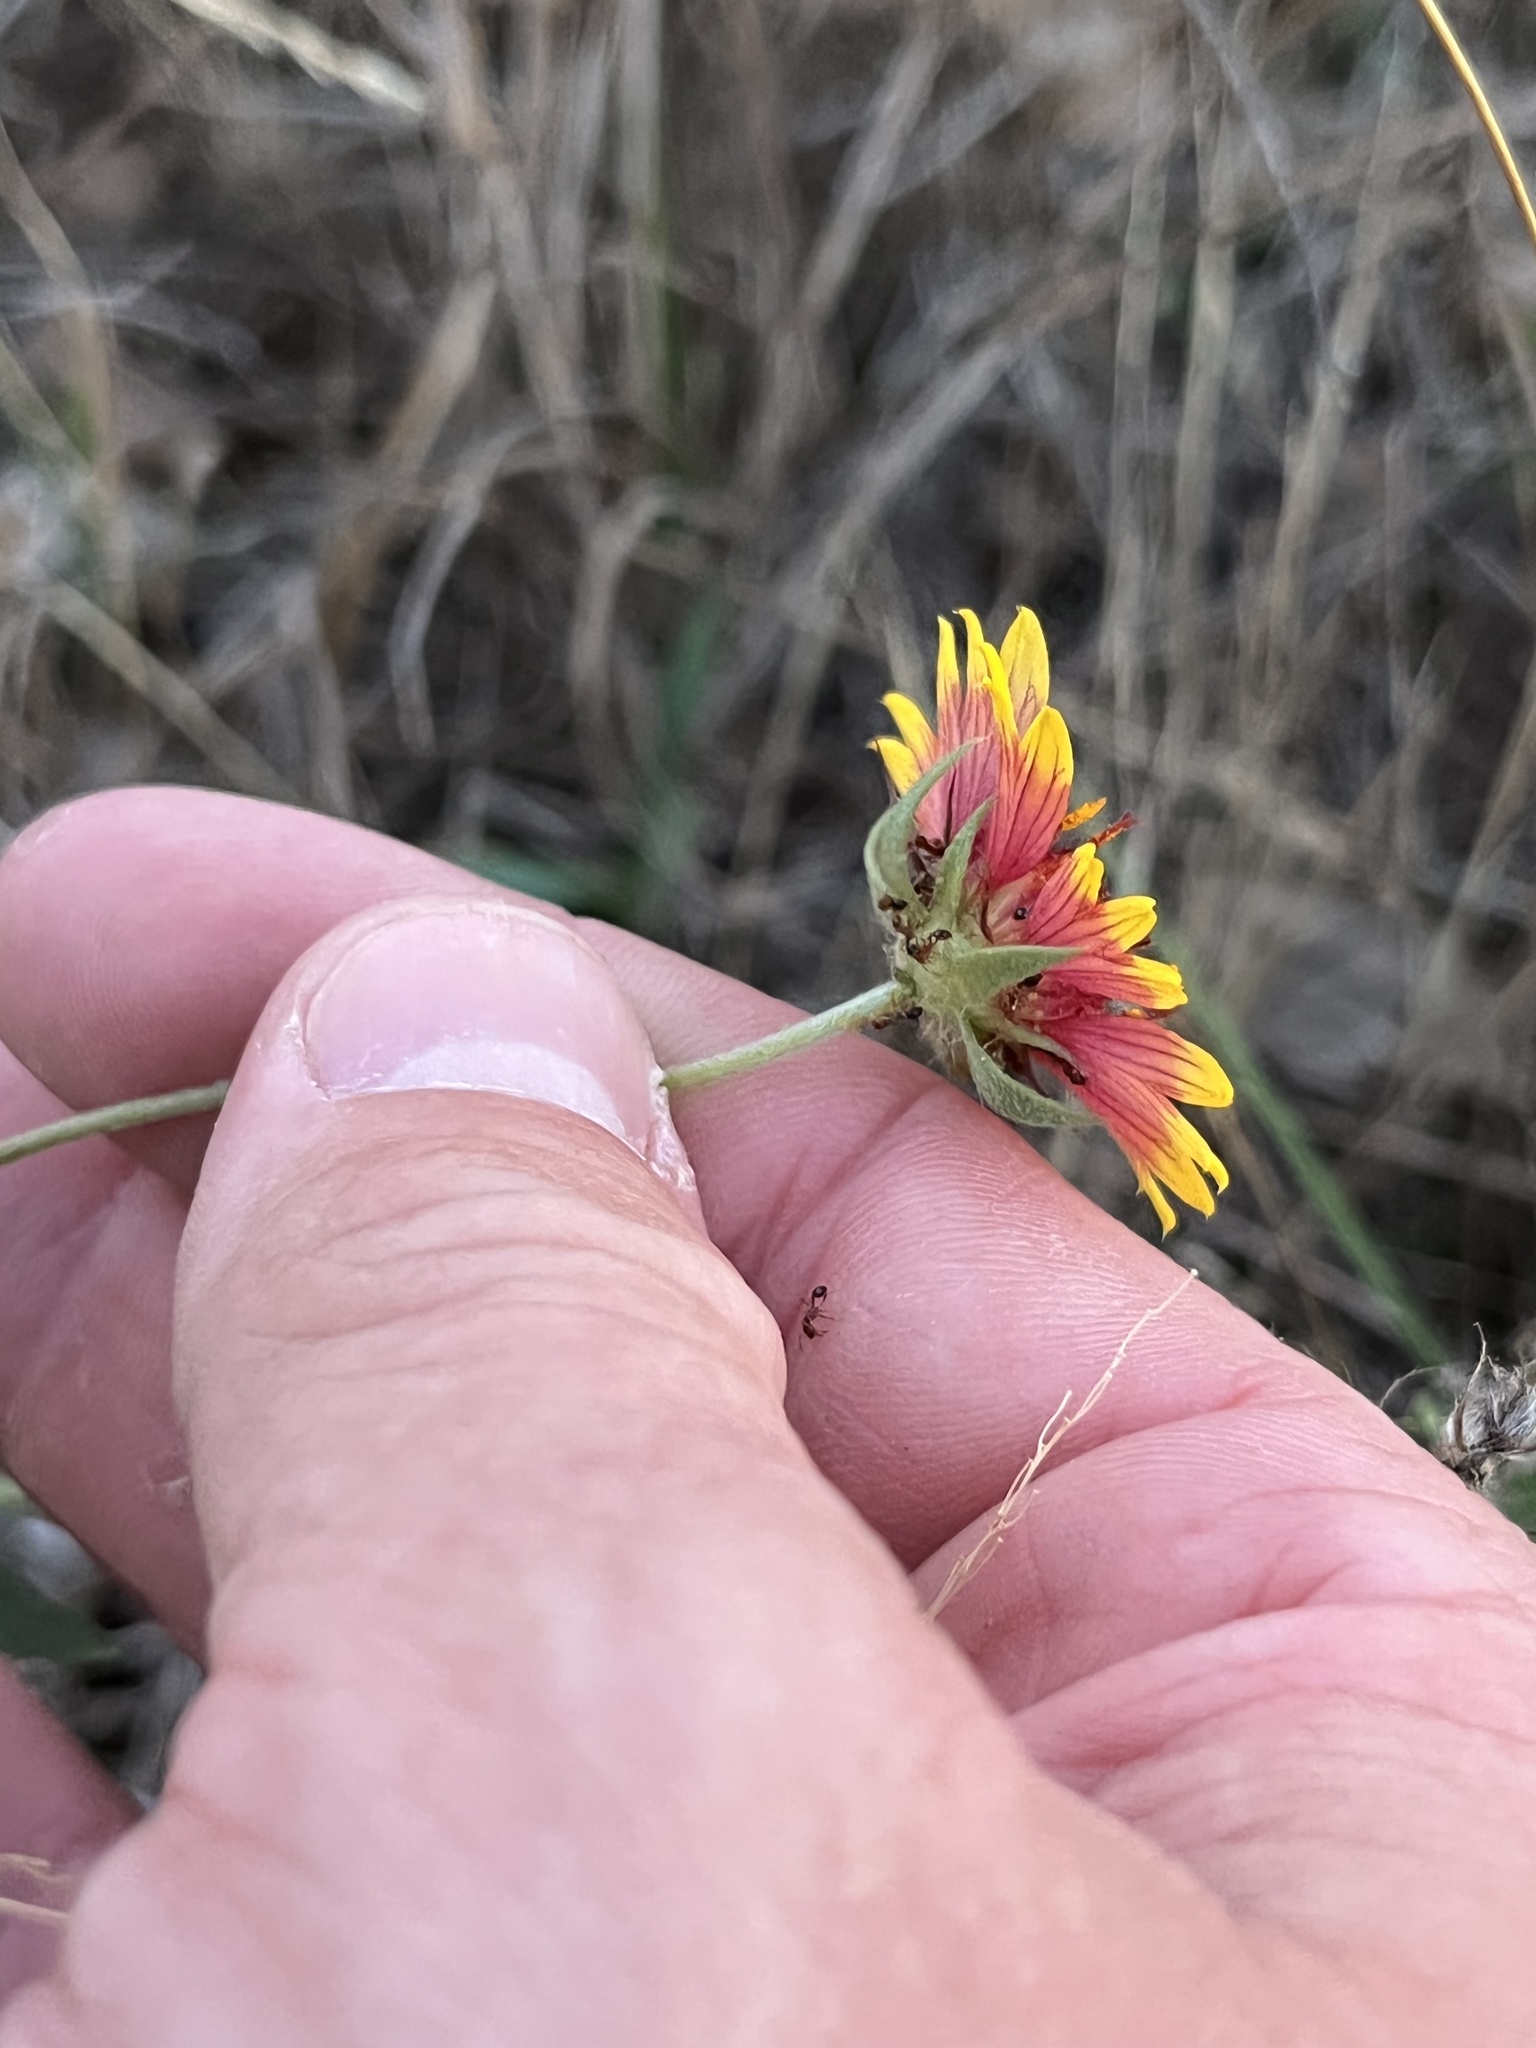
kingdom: Plantae
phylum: Tracheophyta
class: Magnoliopsida
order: Asterales
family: Asteraceae
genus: Gaillardia
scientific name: Gaillardia pulchella
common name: Firewheel
